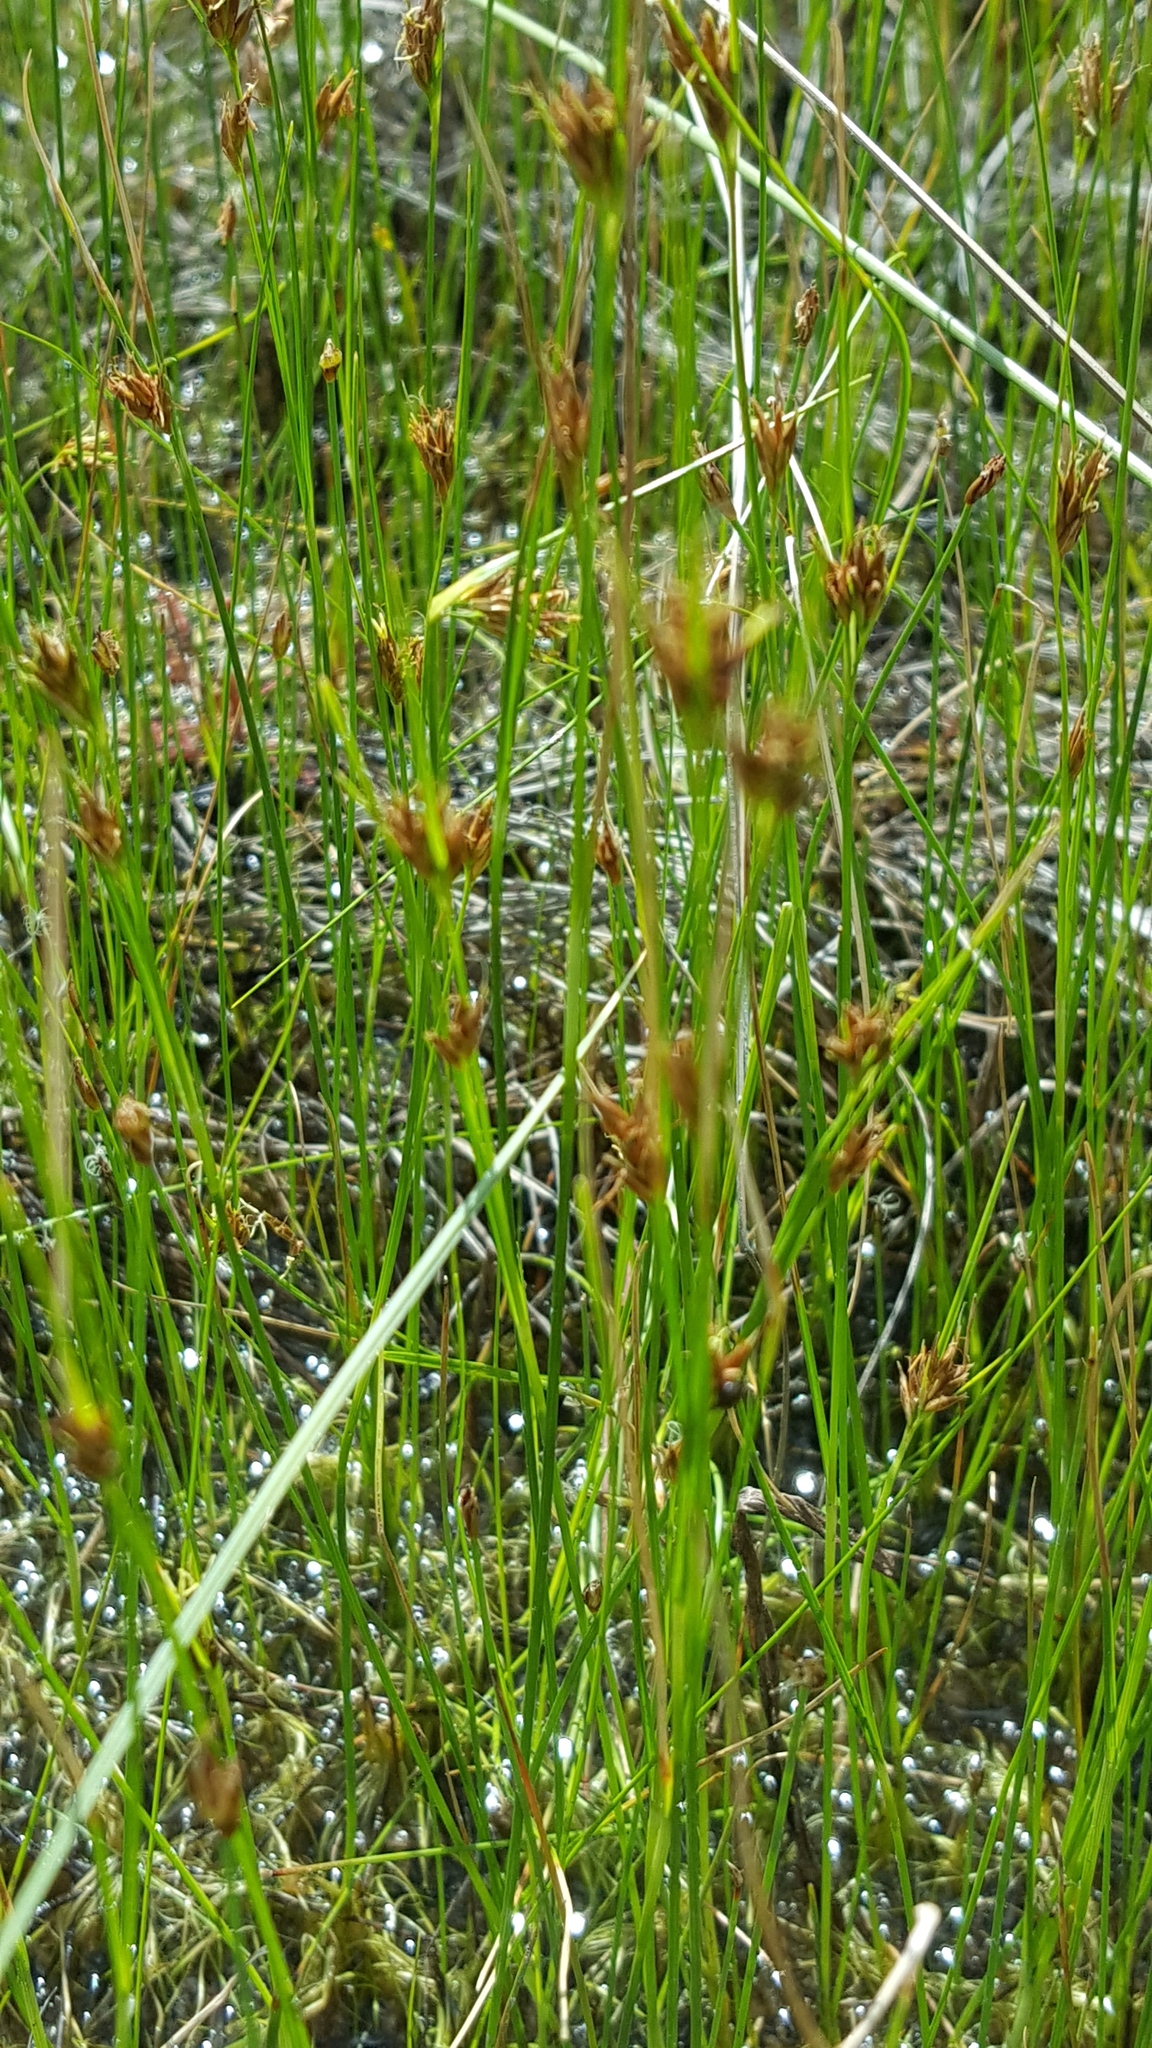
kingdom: Plantae
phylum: Tracheophyta
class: Liliopsida
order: Poales
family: Cyperaceae
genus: Rhynchospora
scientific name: Rhynchospora fusca
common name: Brown beak-sedge
